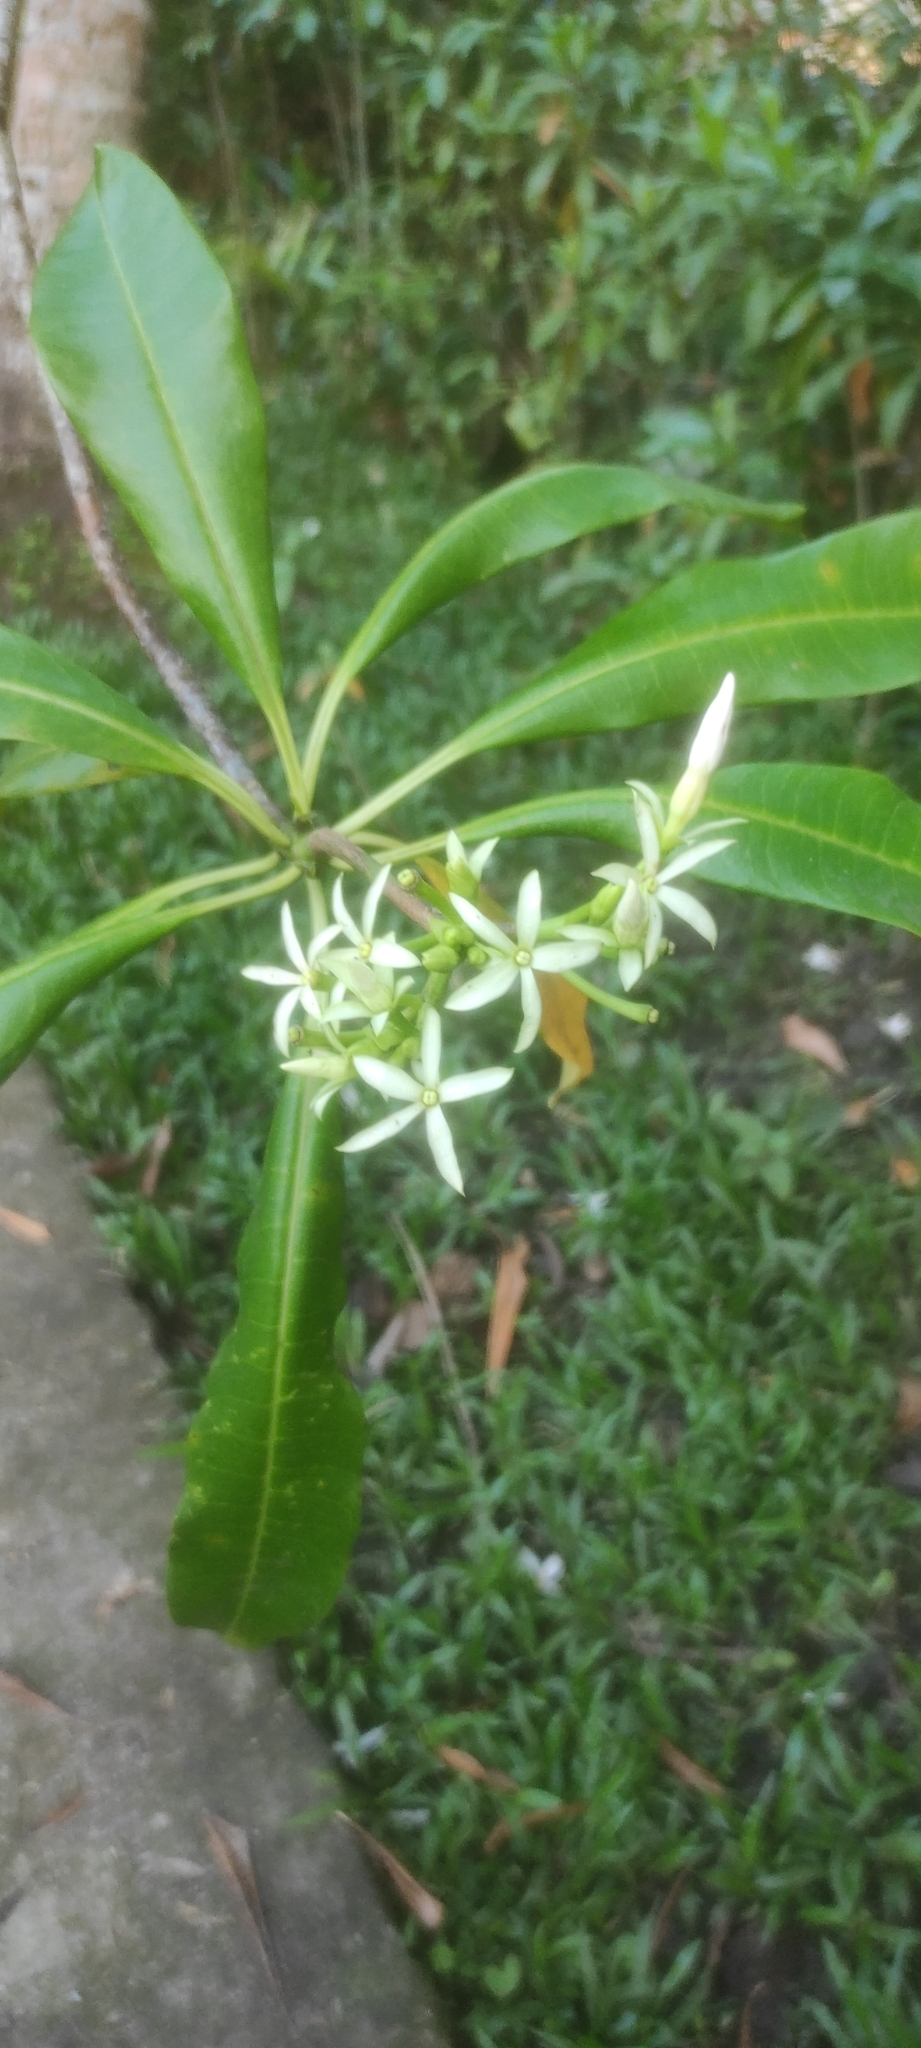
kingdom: Plantae
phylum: Tracheophyta
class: Magnoliopsida
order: Gentianales
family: Apocynaceae
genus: Cerbera
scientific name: Cerbera odollam
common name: Pong-pong
